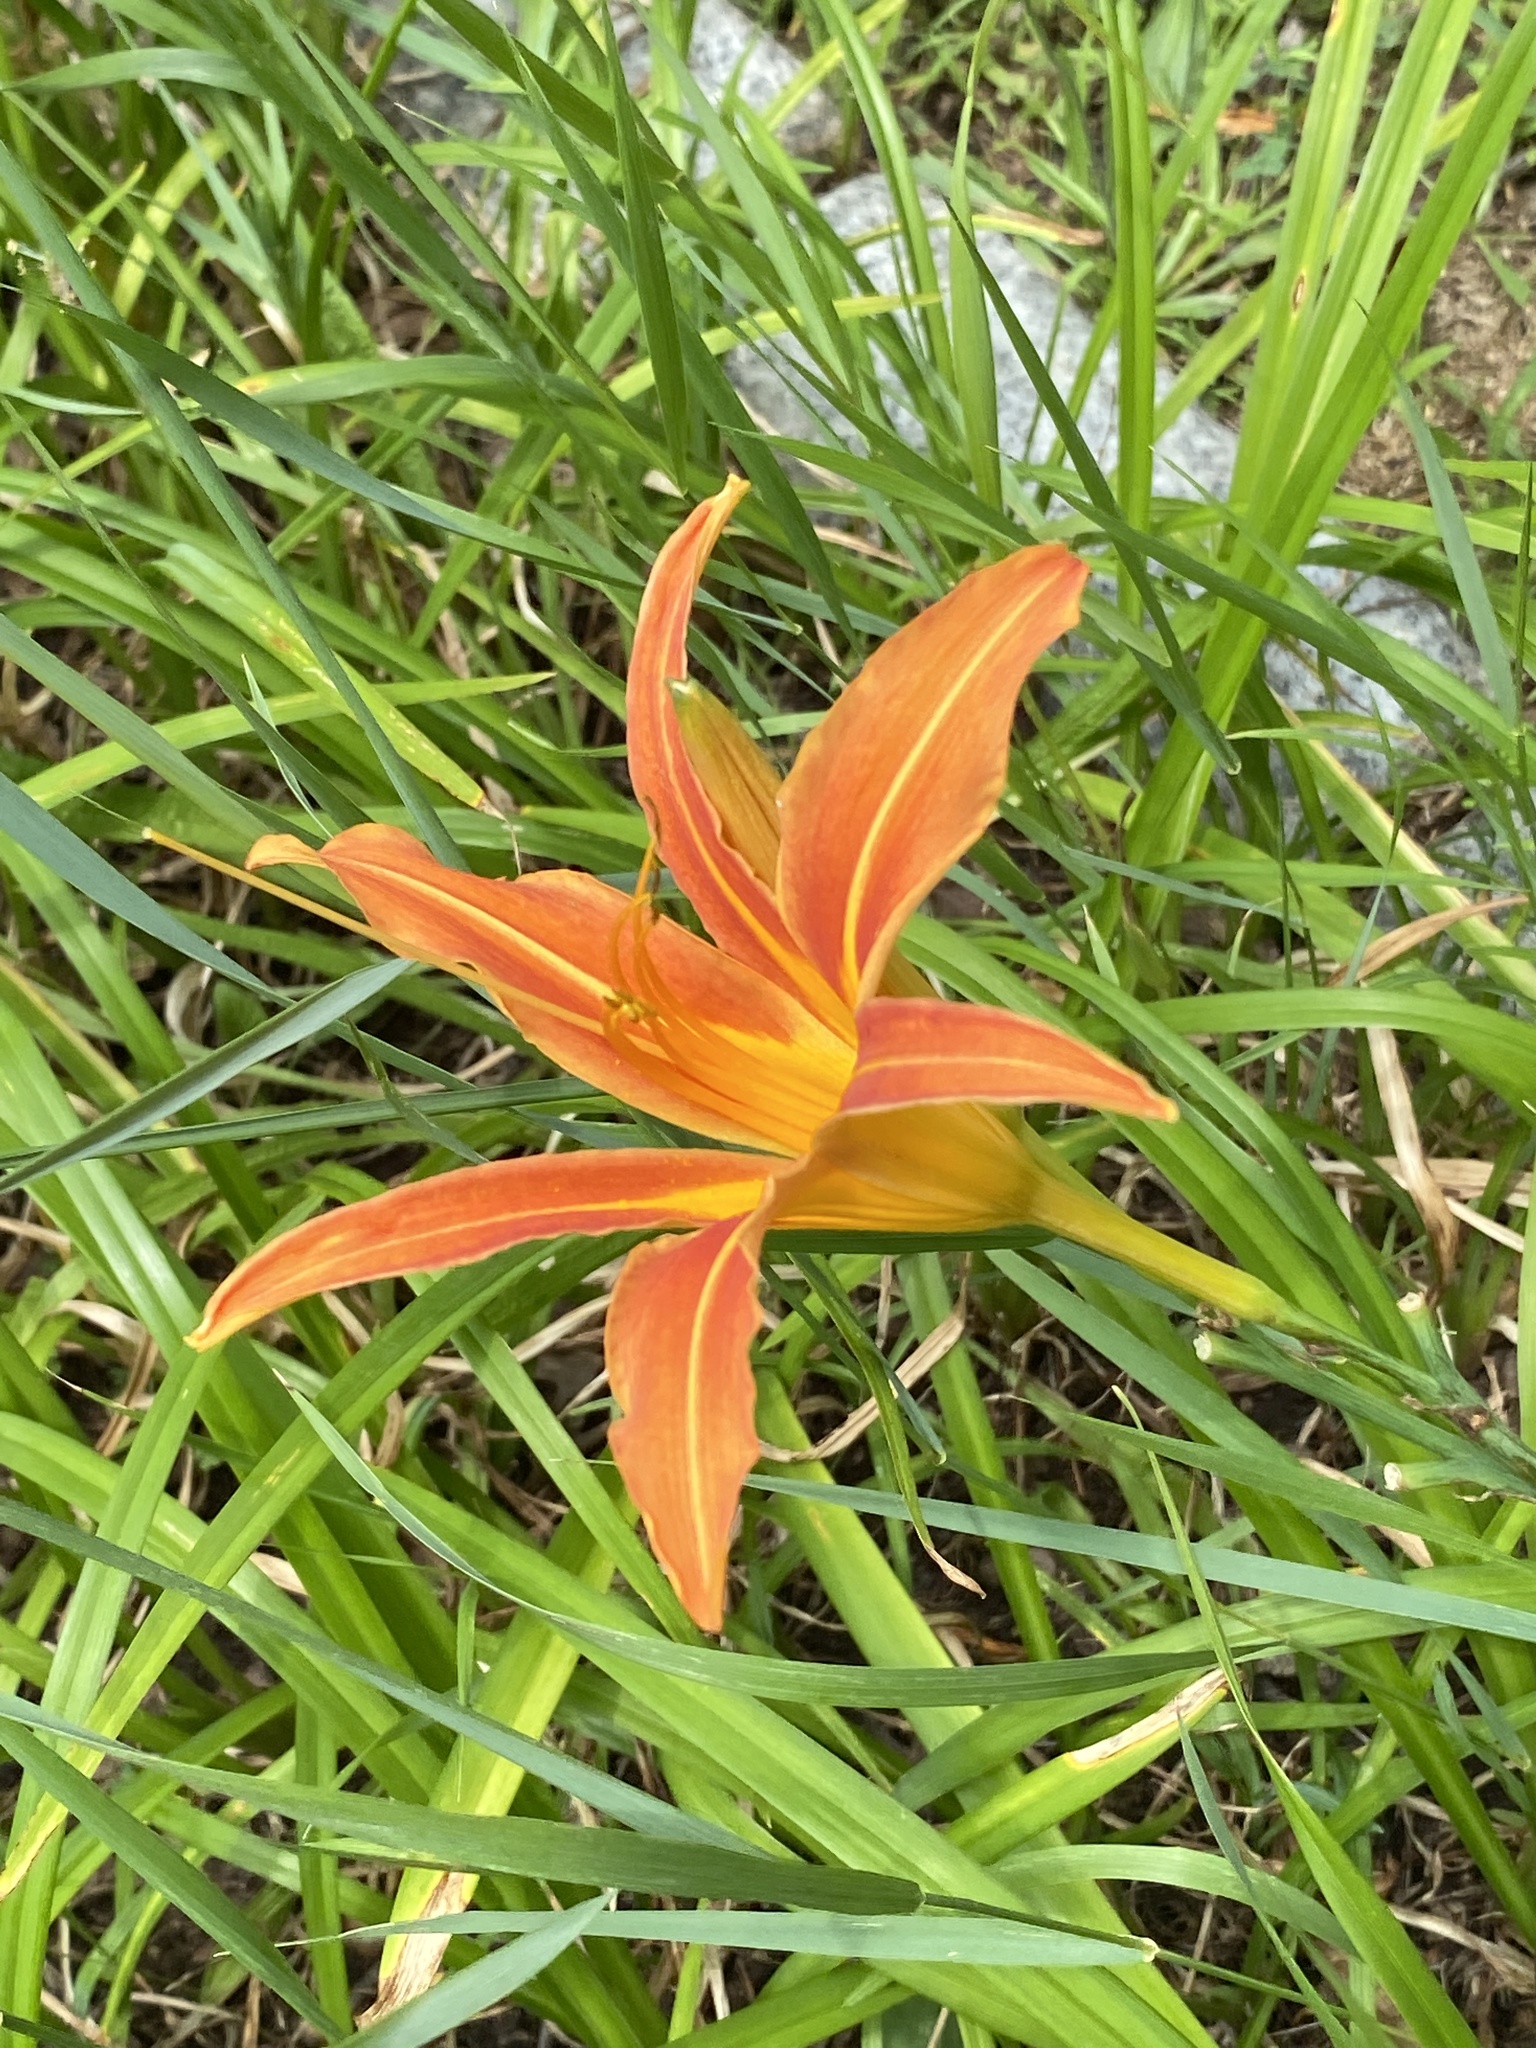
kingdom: Plantae
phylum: Tracheophyta
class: Liliopsida
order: Asparagales
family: Asphodelaceae
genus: Hemerocallis
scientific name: Hemerocallis fulva
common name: Orange day-lily
